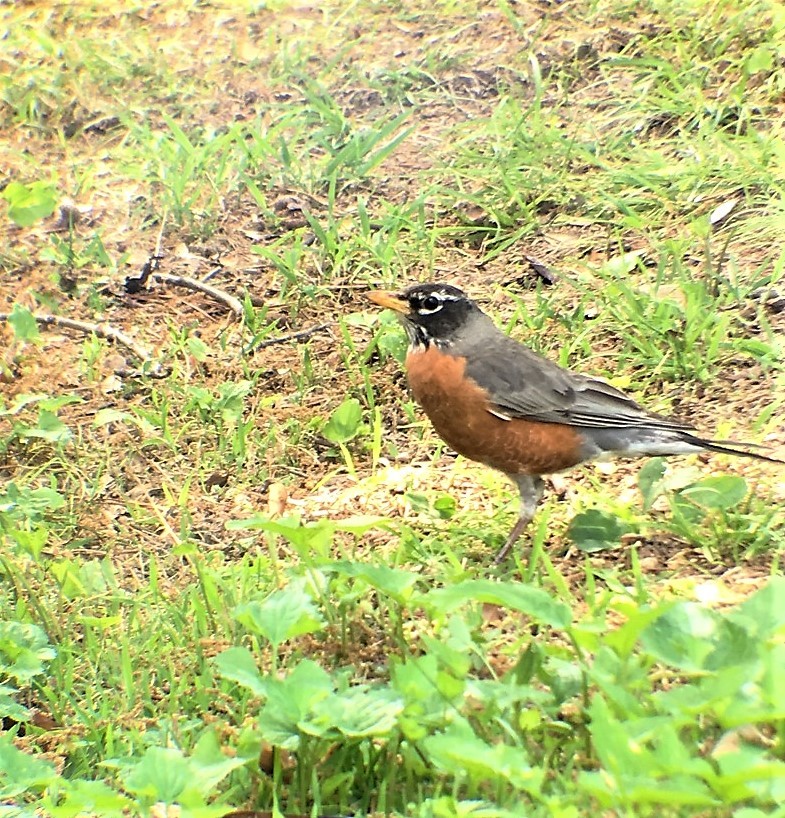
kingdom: Animalia
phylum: Chordata
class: Aves
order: Passeriformes
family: Turdidae
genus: Turdus
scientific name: Turdus migratorius
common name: American robin
